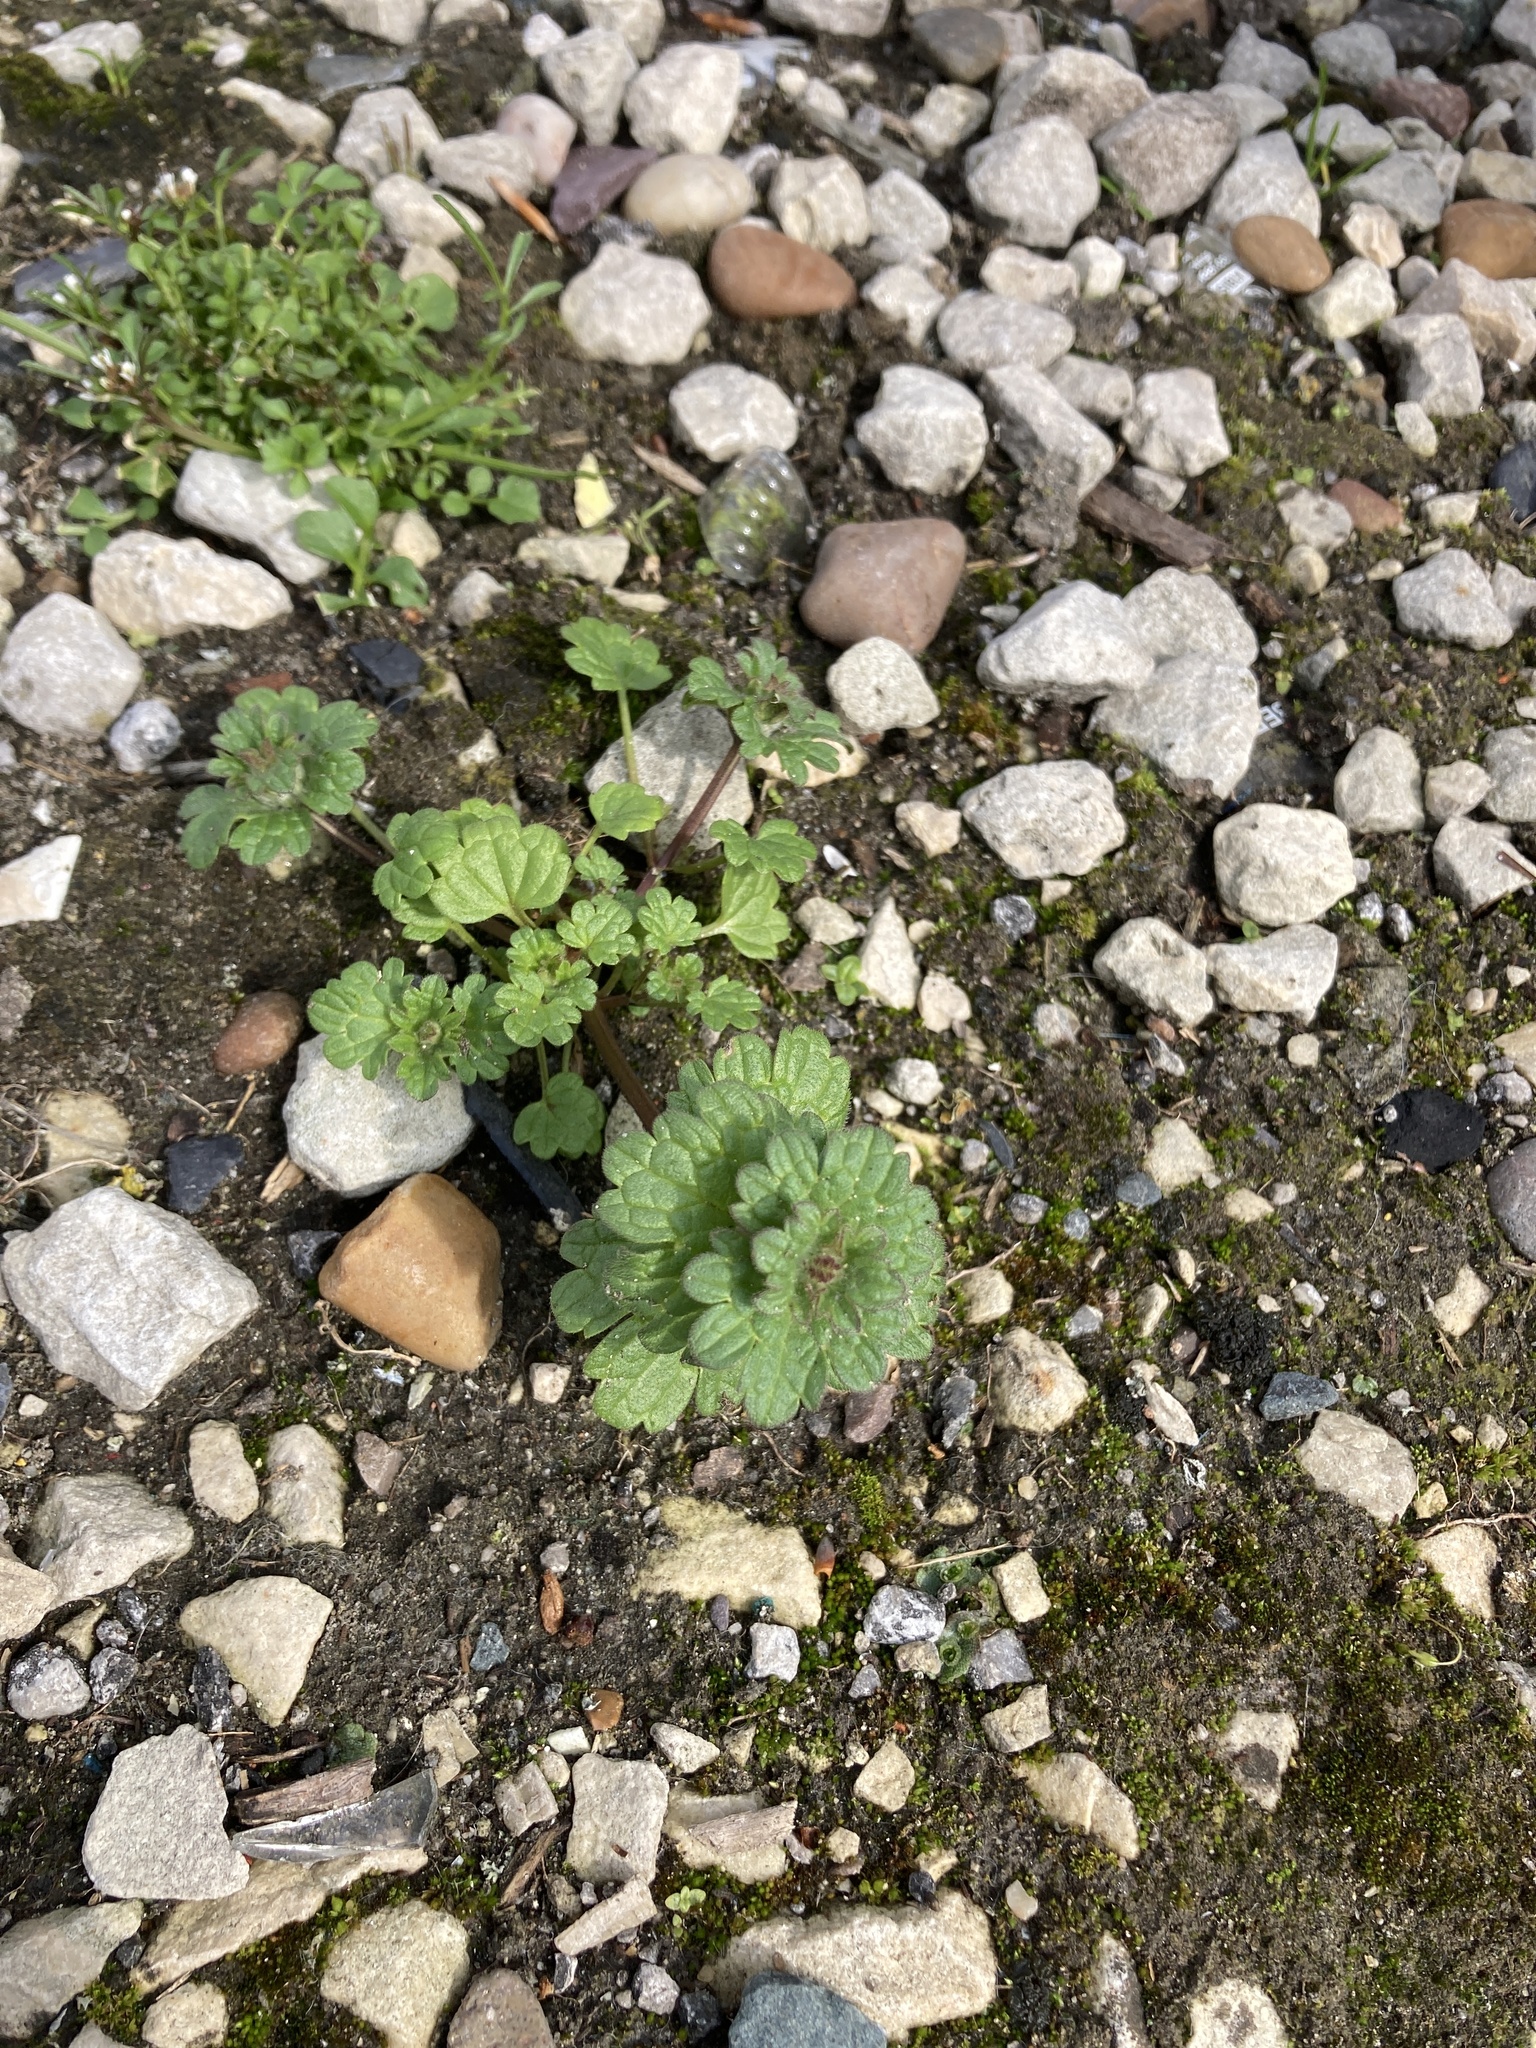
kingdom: Plantae
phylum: Tracheophyta
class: Magnoliopsida
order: Lamiales
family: Lamiaceae
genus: Lamium
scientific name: Lamium amplexicaule
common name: Henbit dead-nettle
